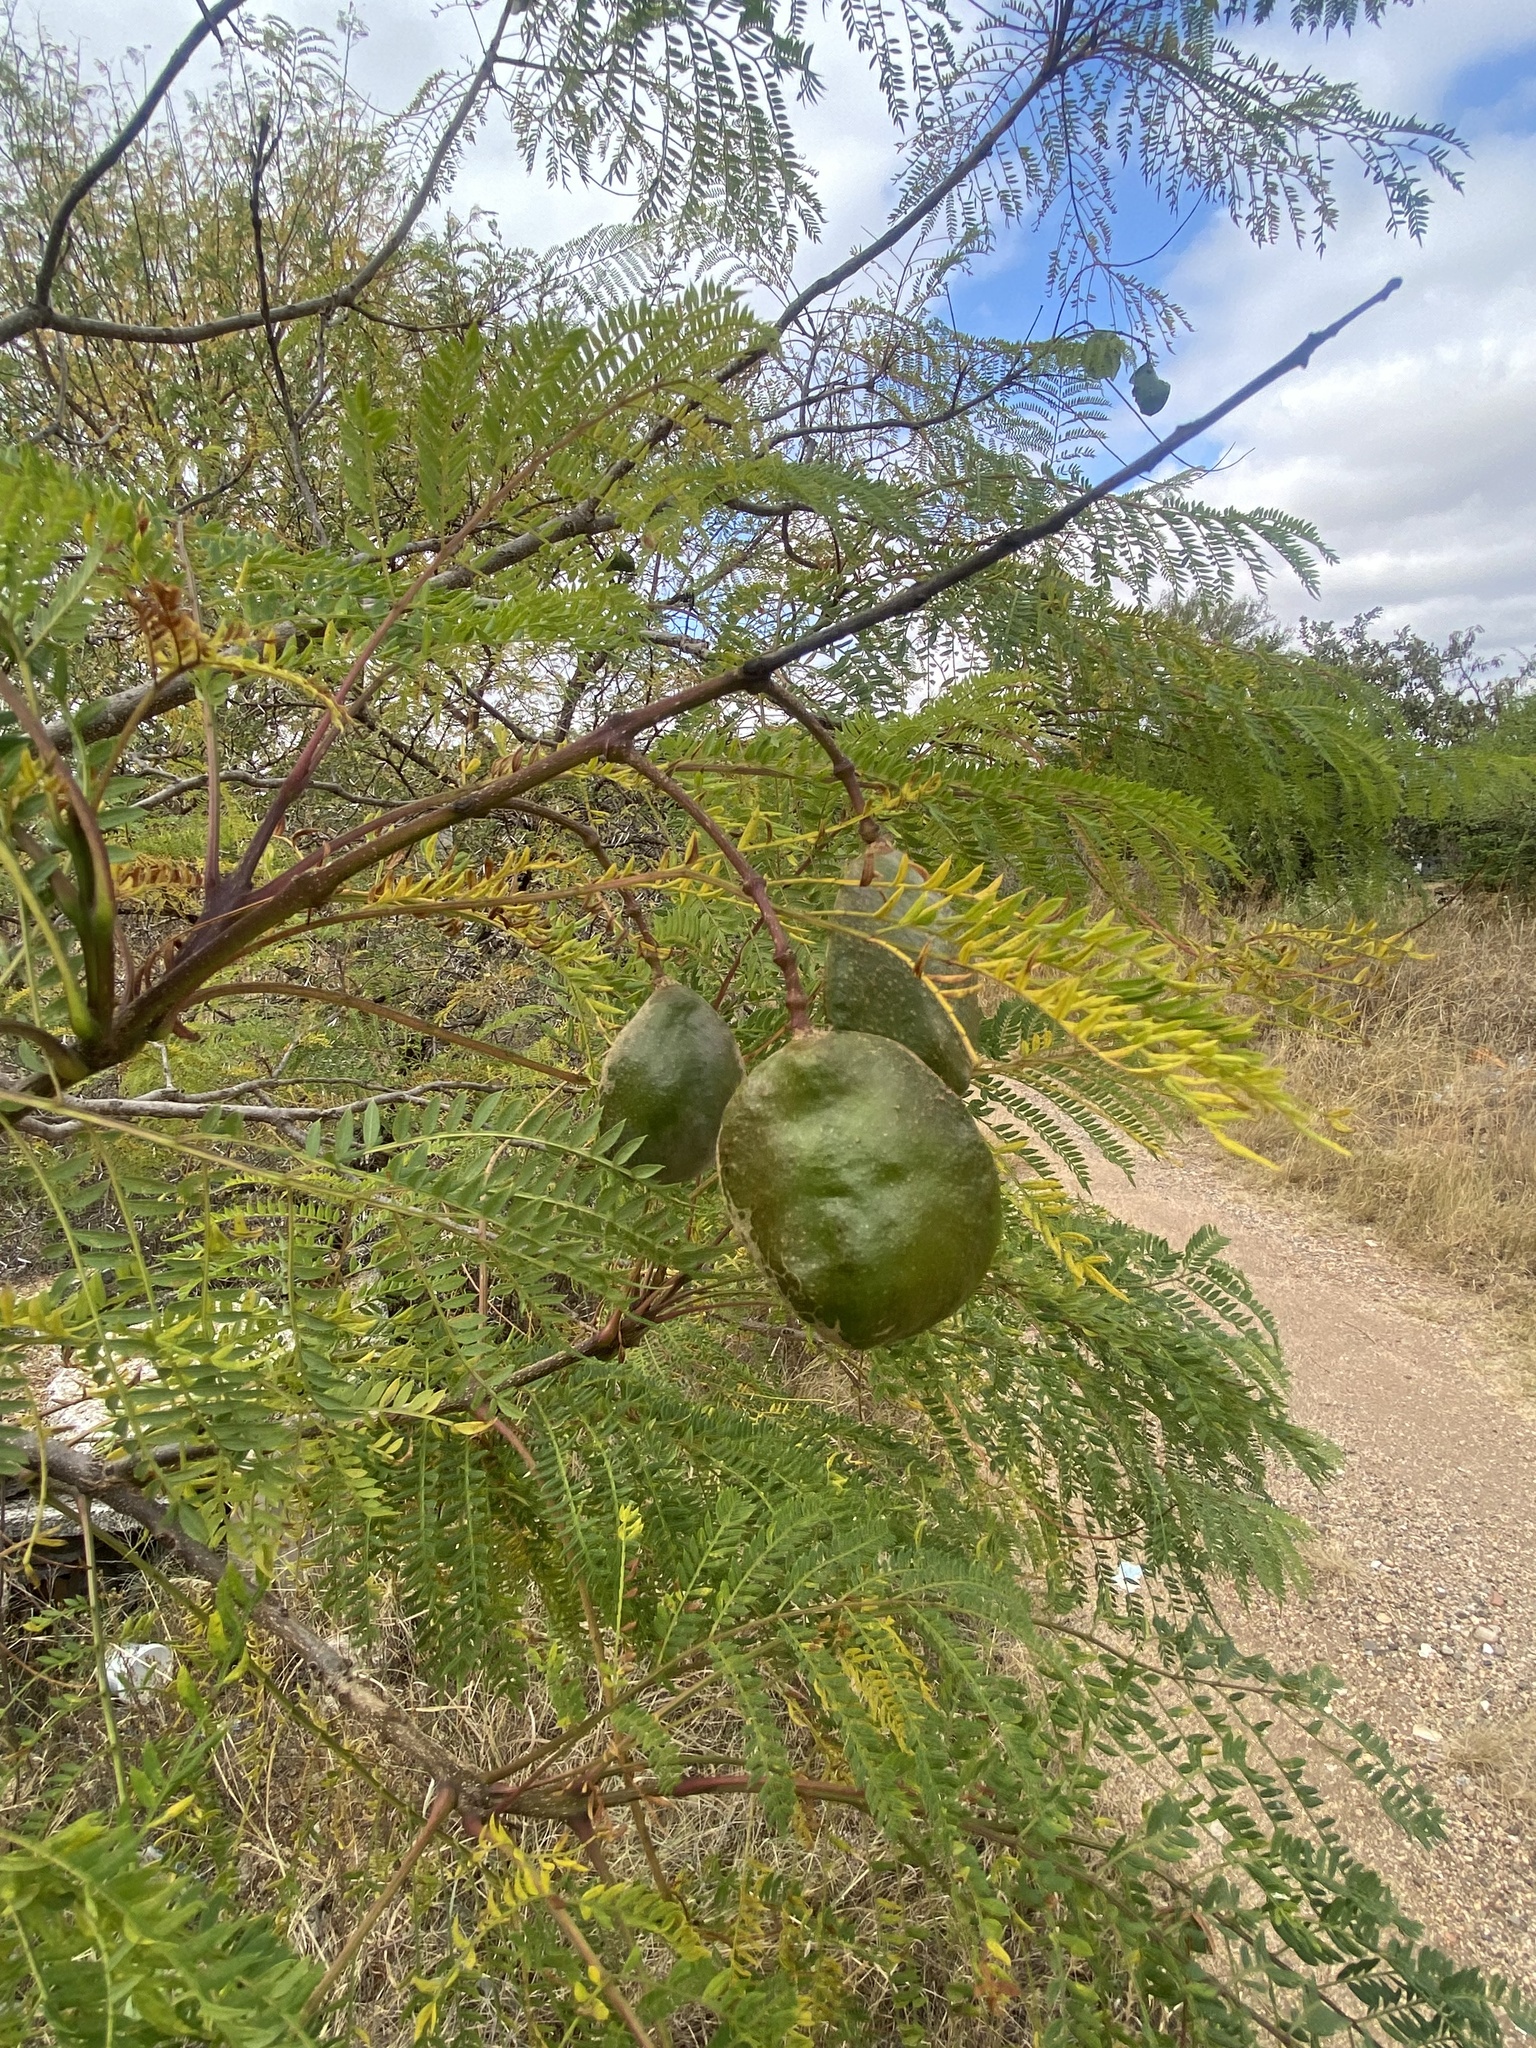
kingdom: Plantae
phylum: Tracheophyta
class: Magnoliopsida
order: Lamiales
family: Bignoniaceae
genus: Jacaranda
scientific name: Jacaranda mimosifolia
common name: Black poui
